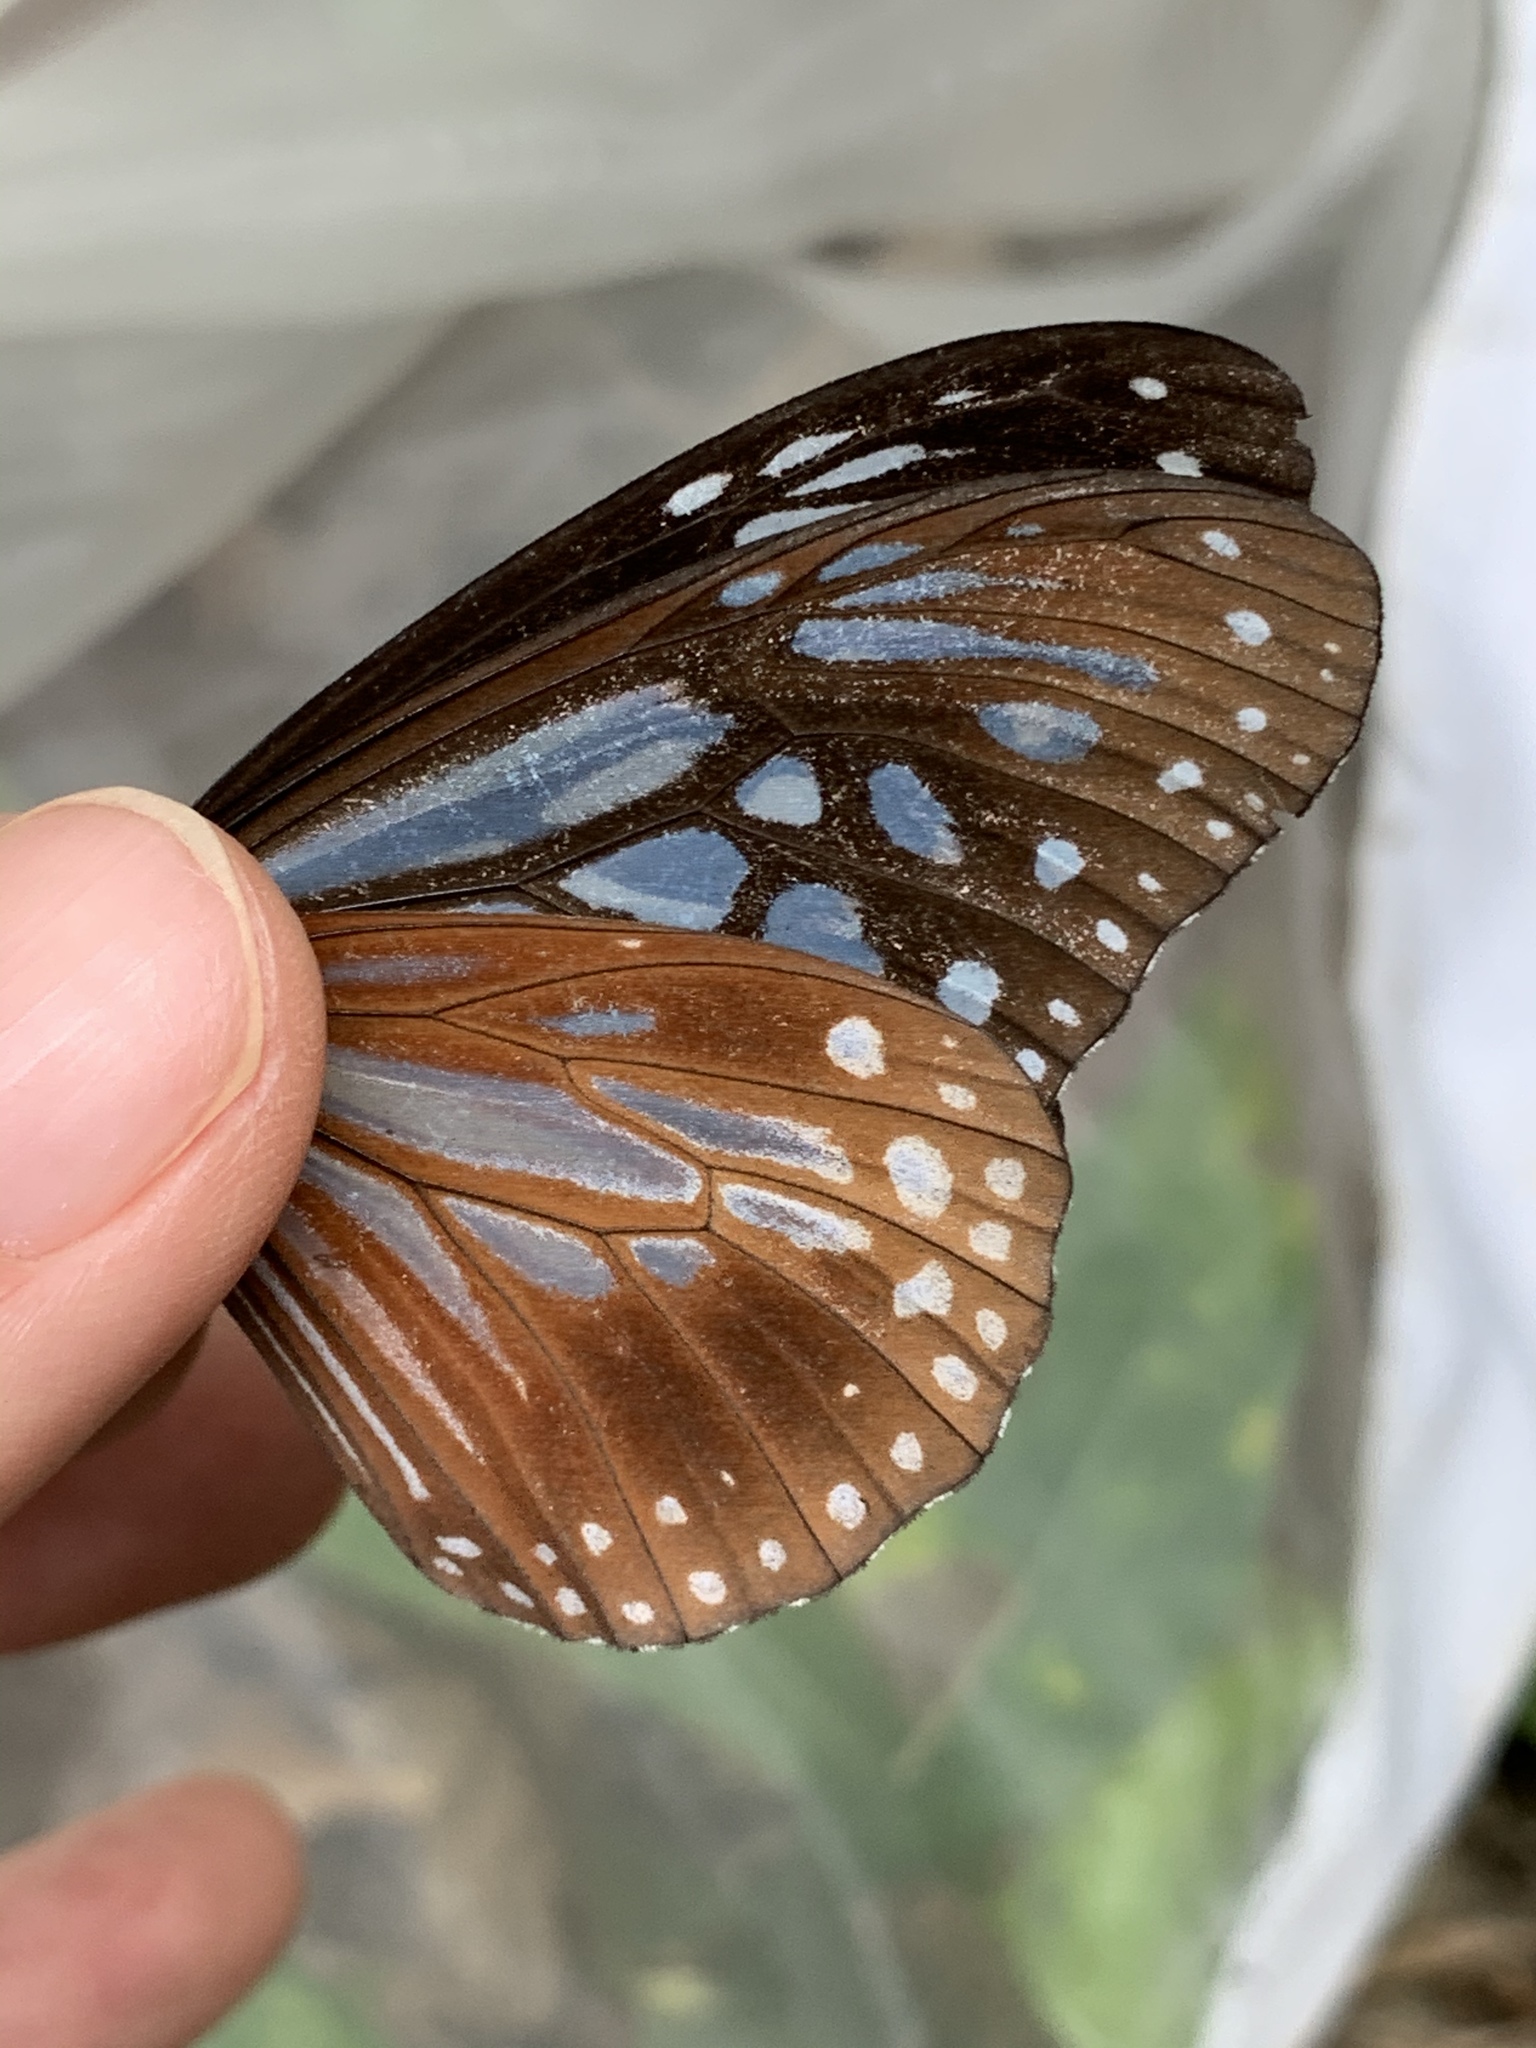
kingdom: Animalia
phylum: Arthropoda
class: Insecta
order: Lepidoptera
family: Nymphalidae
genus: Parantica
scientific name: Parantica melaneus
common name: Chocolate tiger
